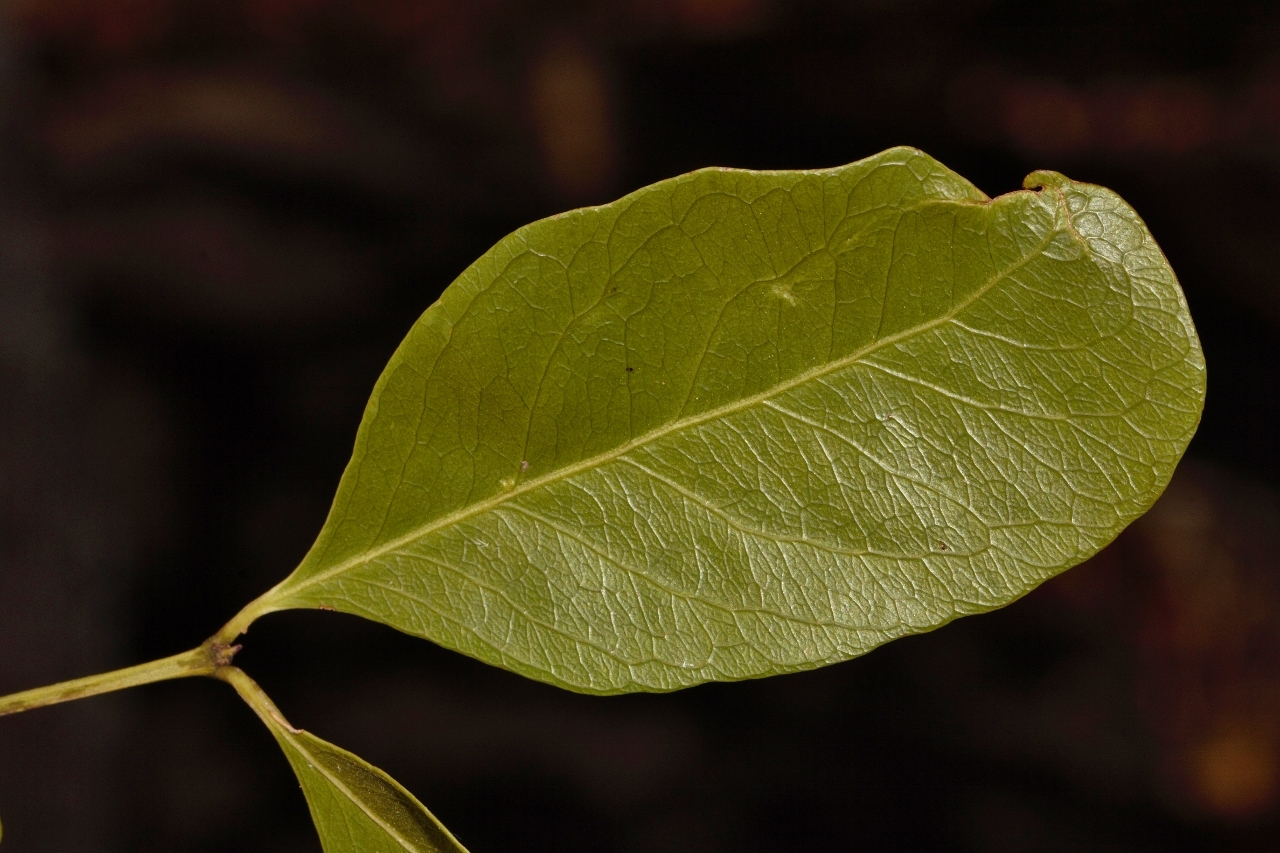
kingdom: Plantae
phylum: Tracheophyta
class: Magnoliopsida
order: Celastrales
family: Celastraceae
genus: Pleurostylia
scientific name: Pleurostylia africana
